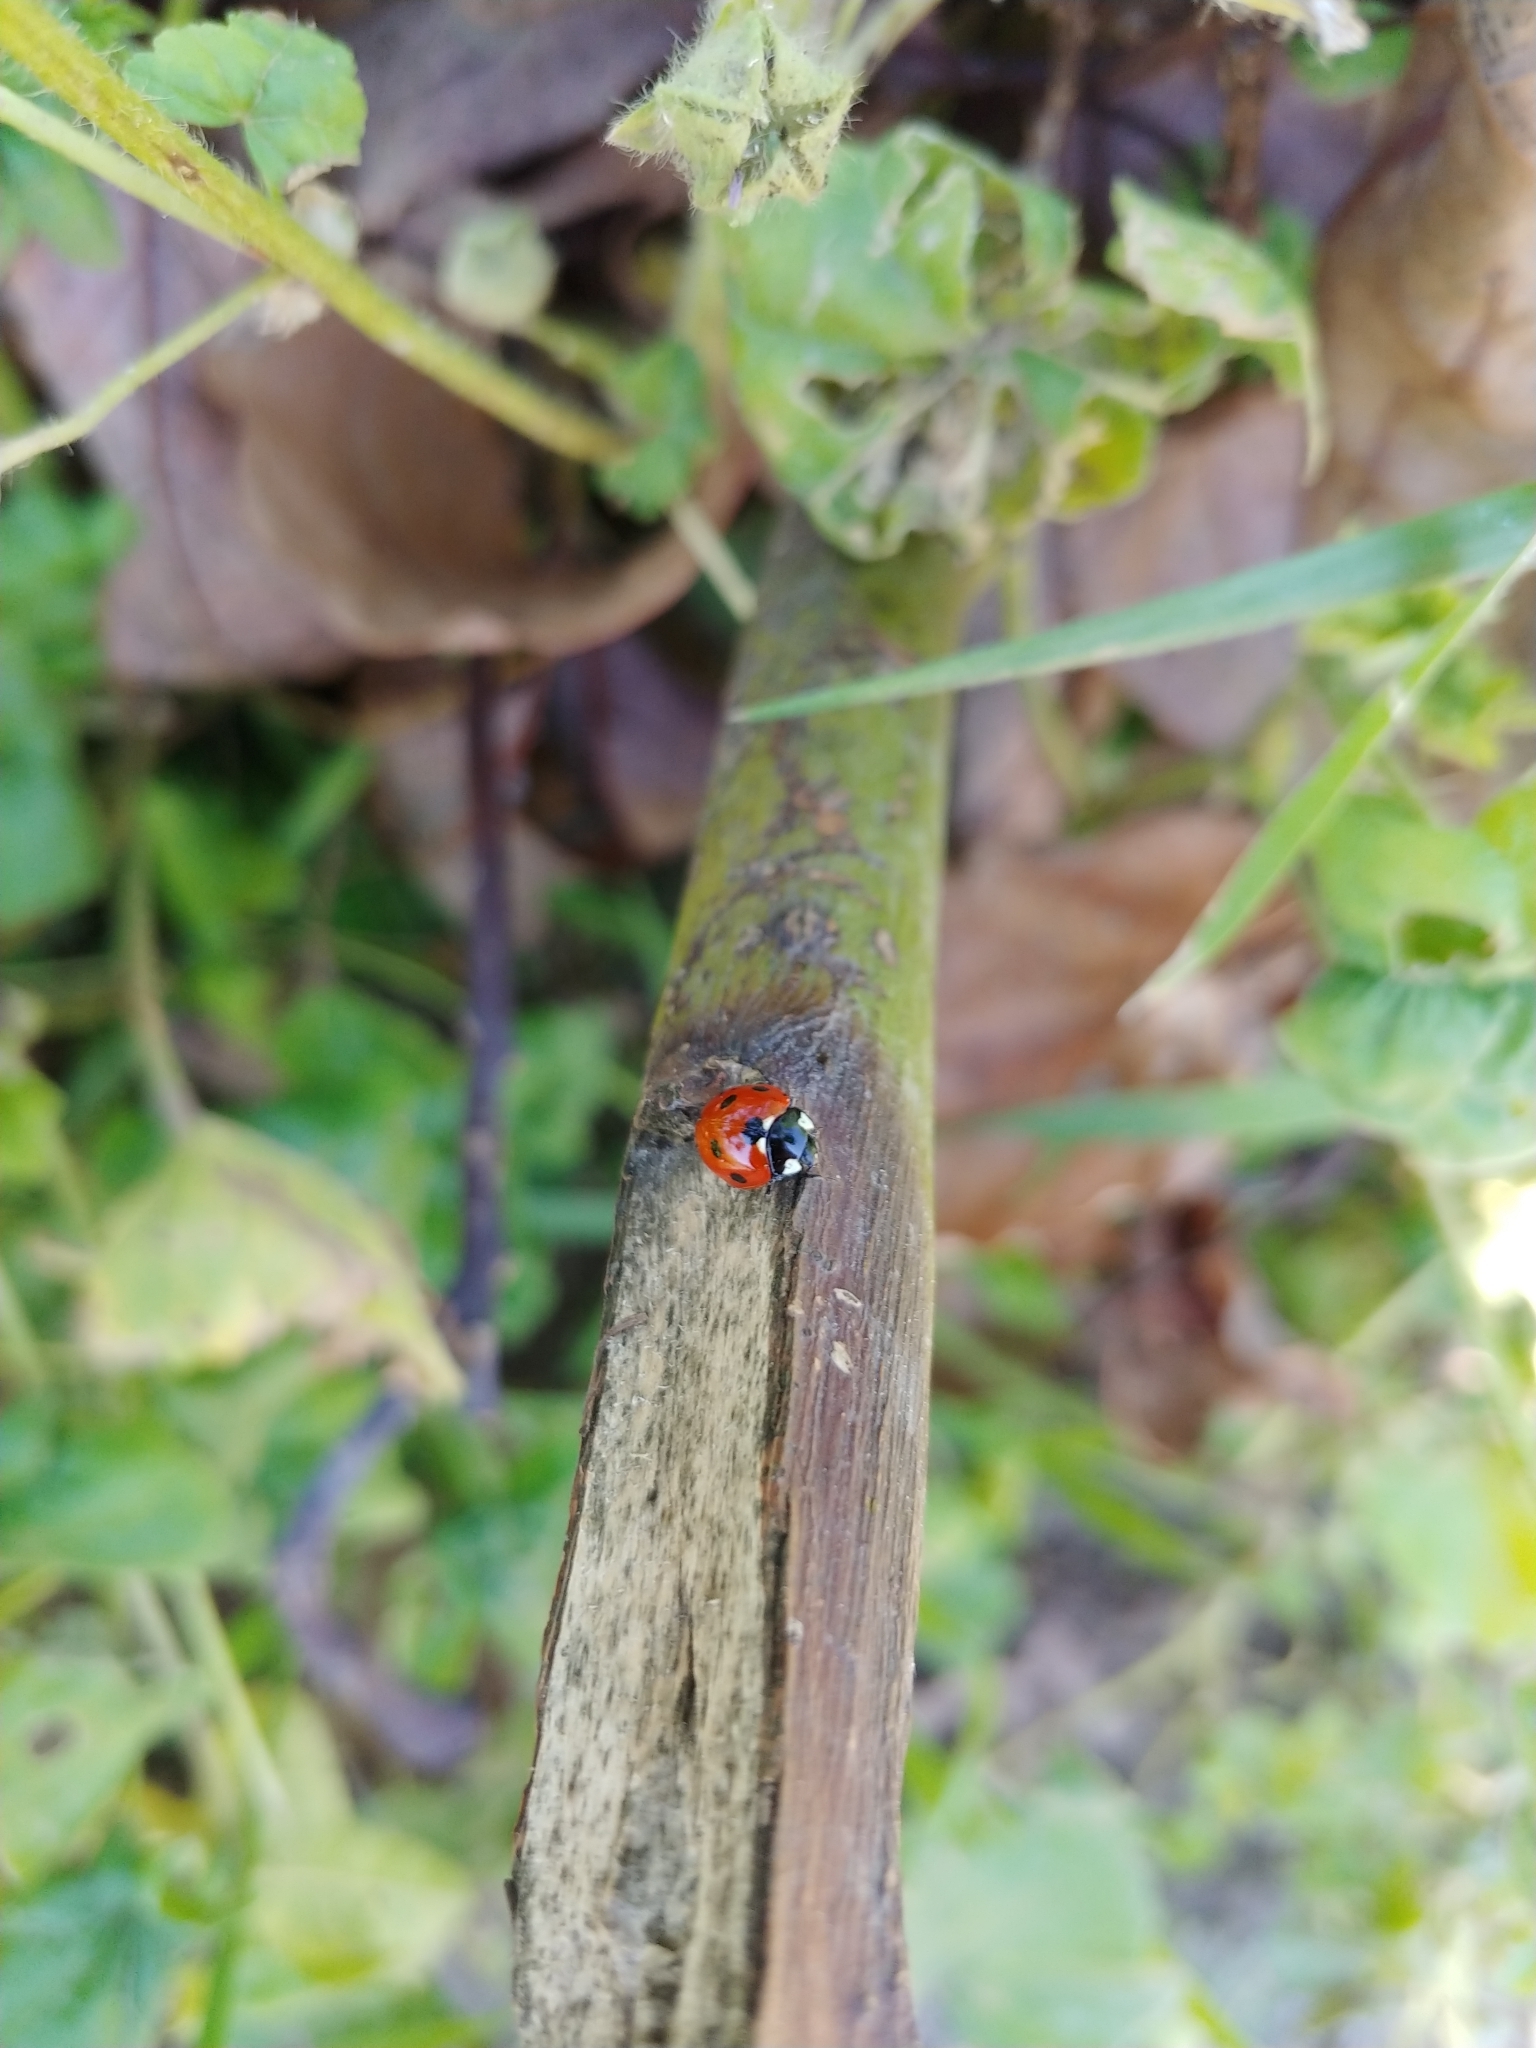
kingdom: Animalia
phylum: Arthropoda
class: Insecta
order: Coleoptera
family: Coccinellidae
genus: Coccinella
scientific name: Coccinella septempunctata
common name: Sevenspotted lady beetle
